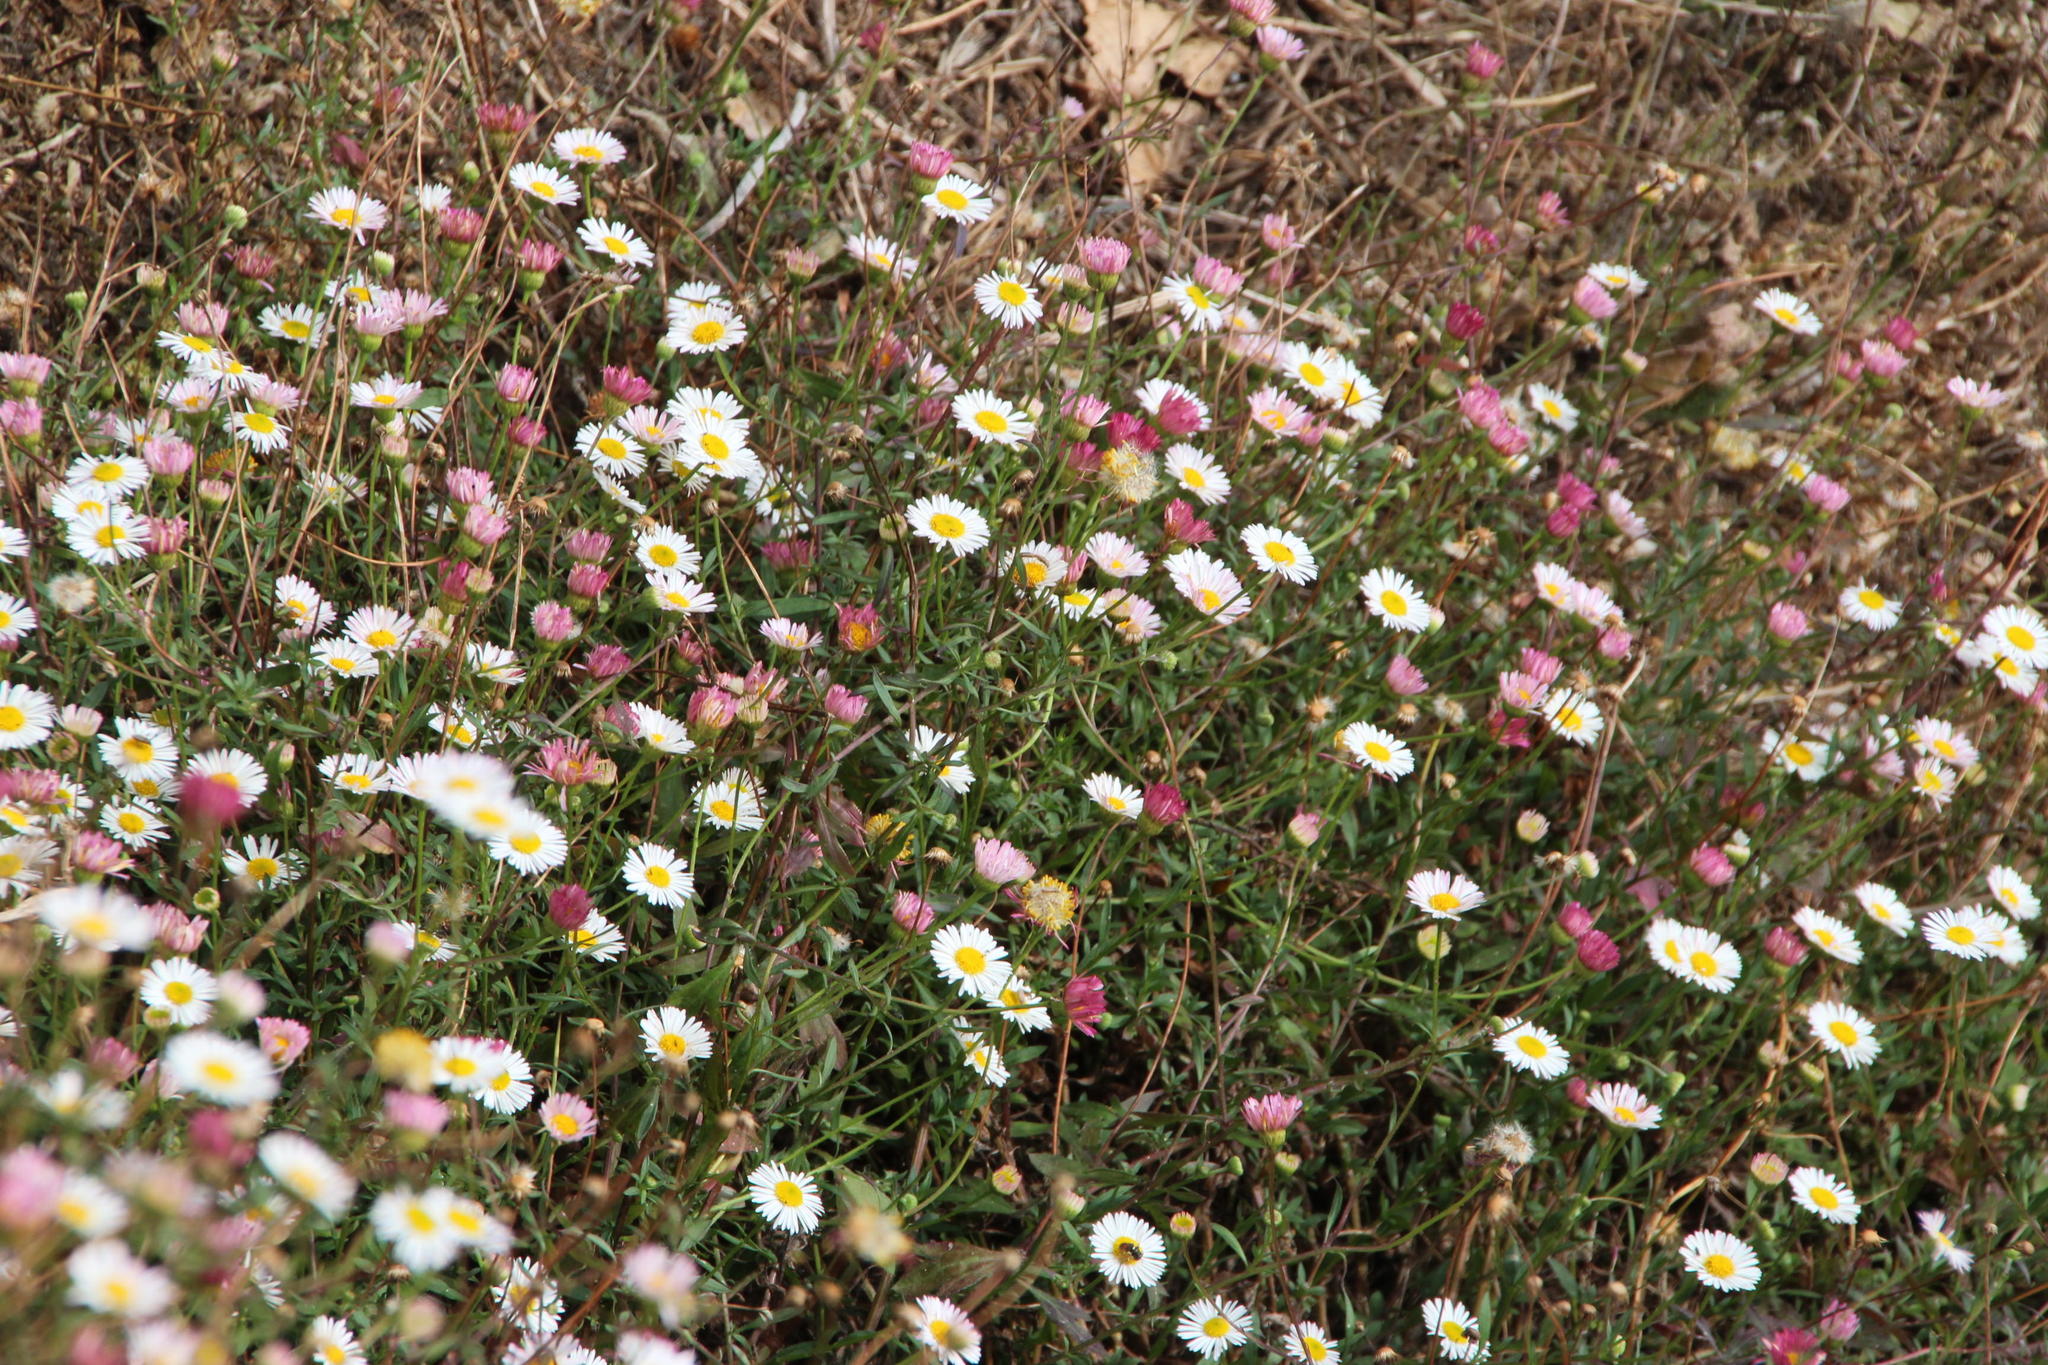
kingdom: Plantae
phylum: Tracheophyta
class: Magnoliopsida
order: Asterales
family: Asteraceae
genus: Erigeron
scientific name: Erigeron karvinskianus
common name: Mexican fleabane
